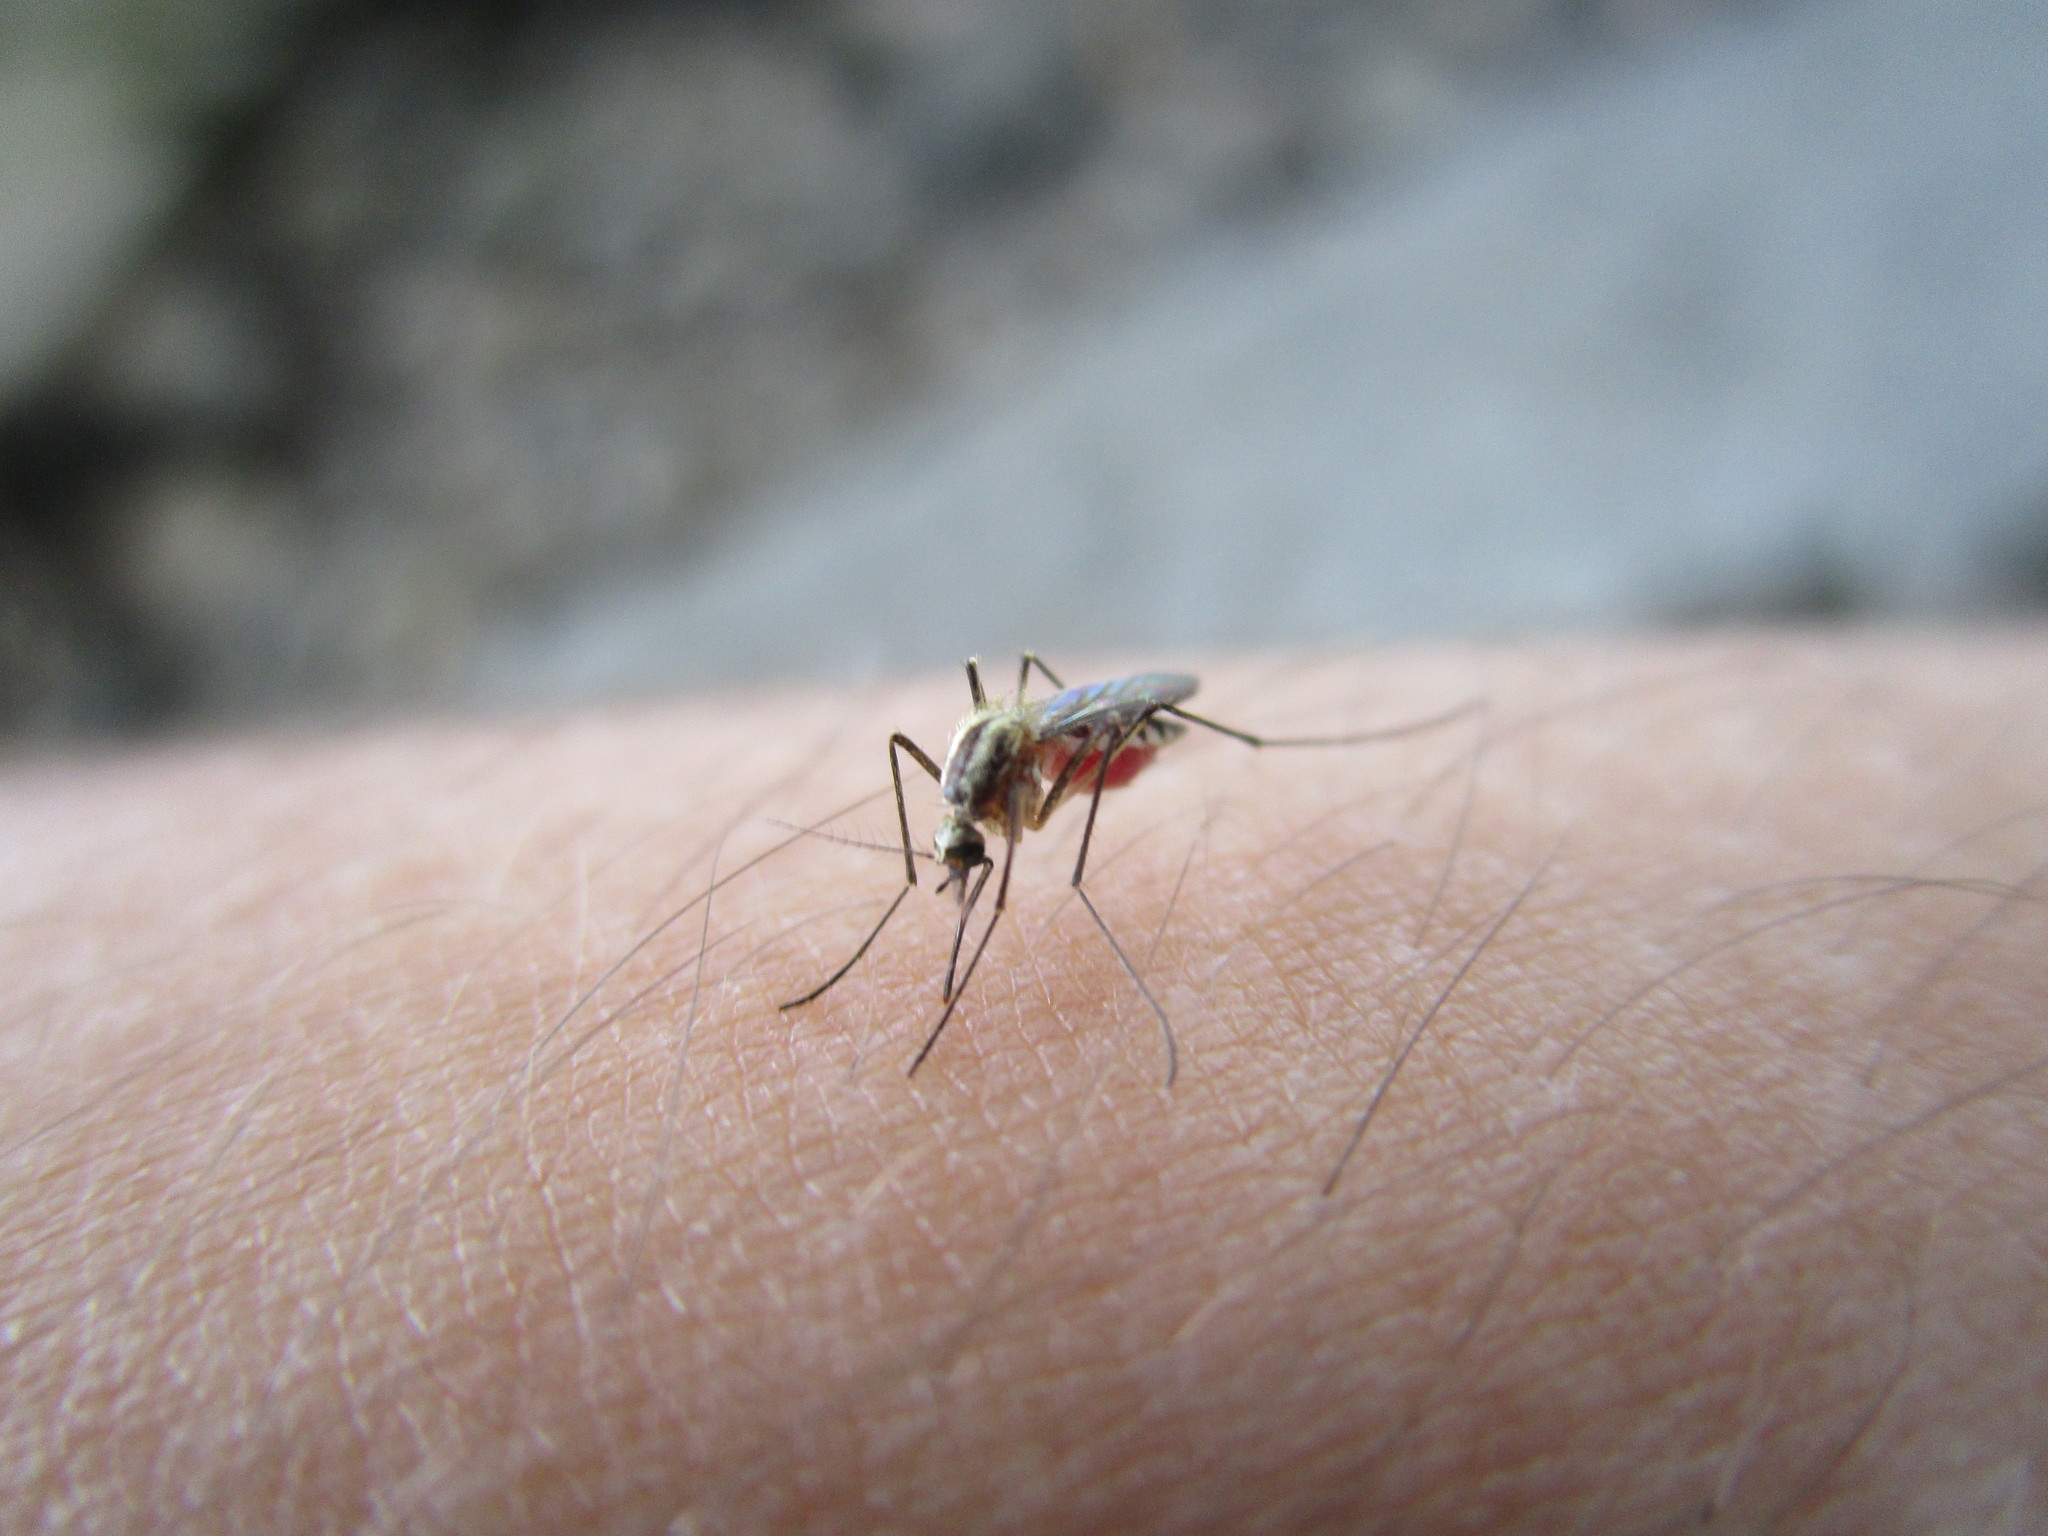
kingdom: Animalia
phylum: Arthropoda
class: Insecta
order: Diptera
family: Culicidae
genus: Aedes
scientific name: Aedes trivittatus
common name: Plains floodwater mosquito
